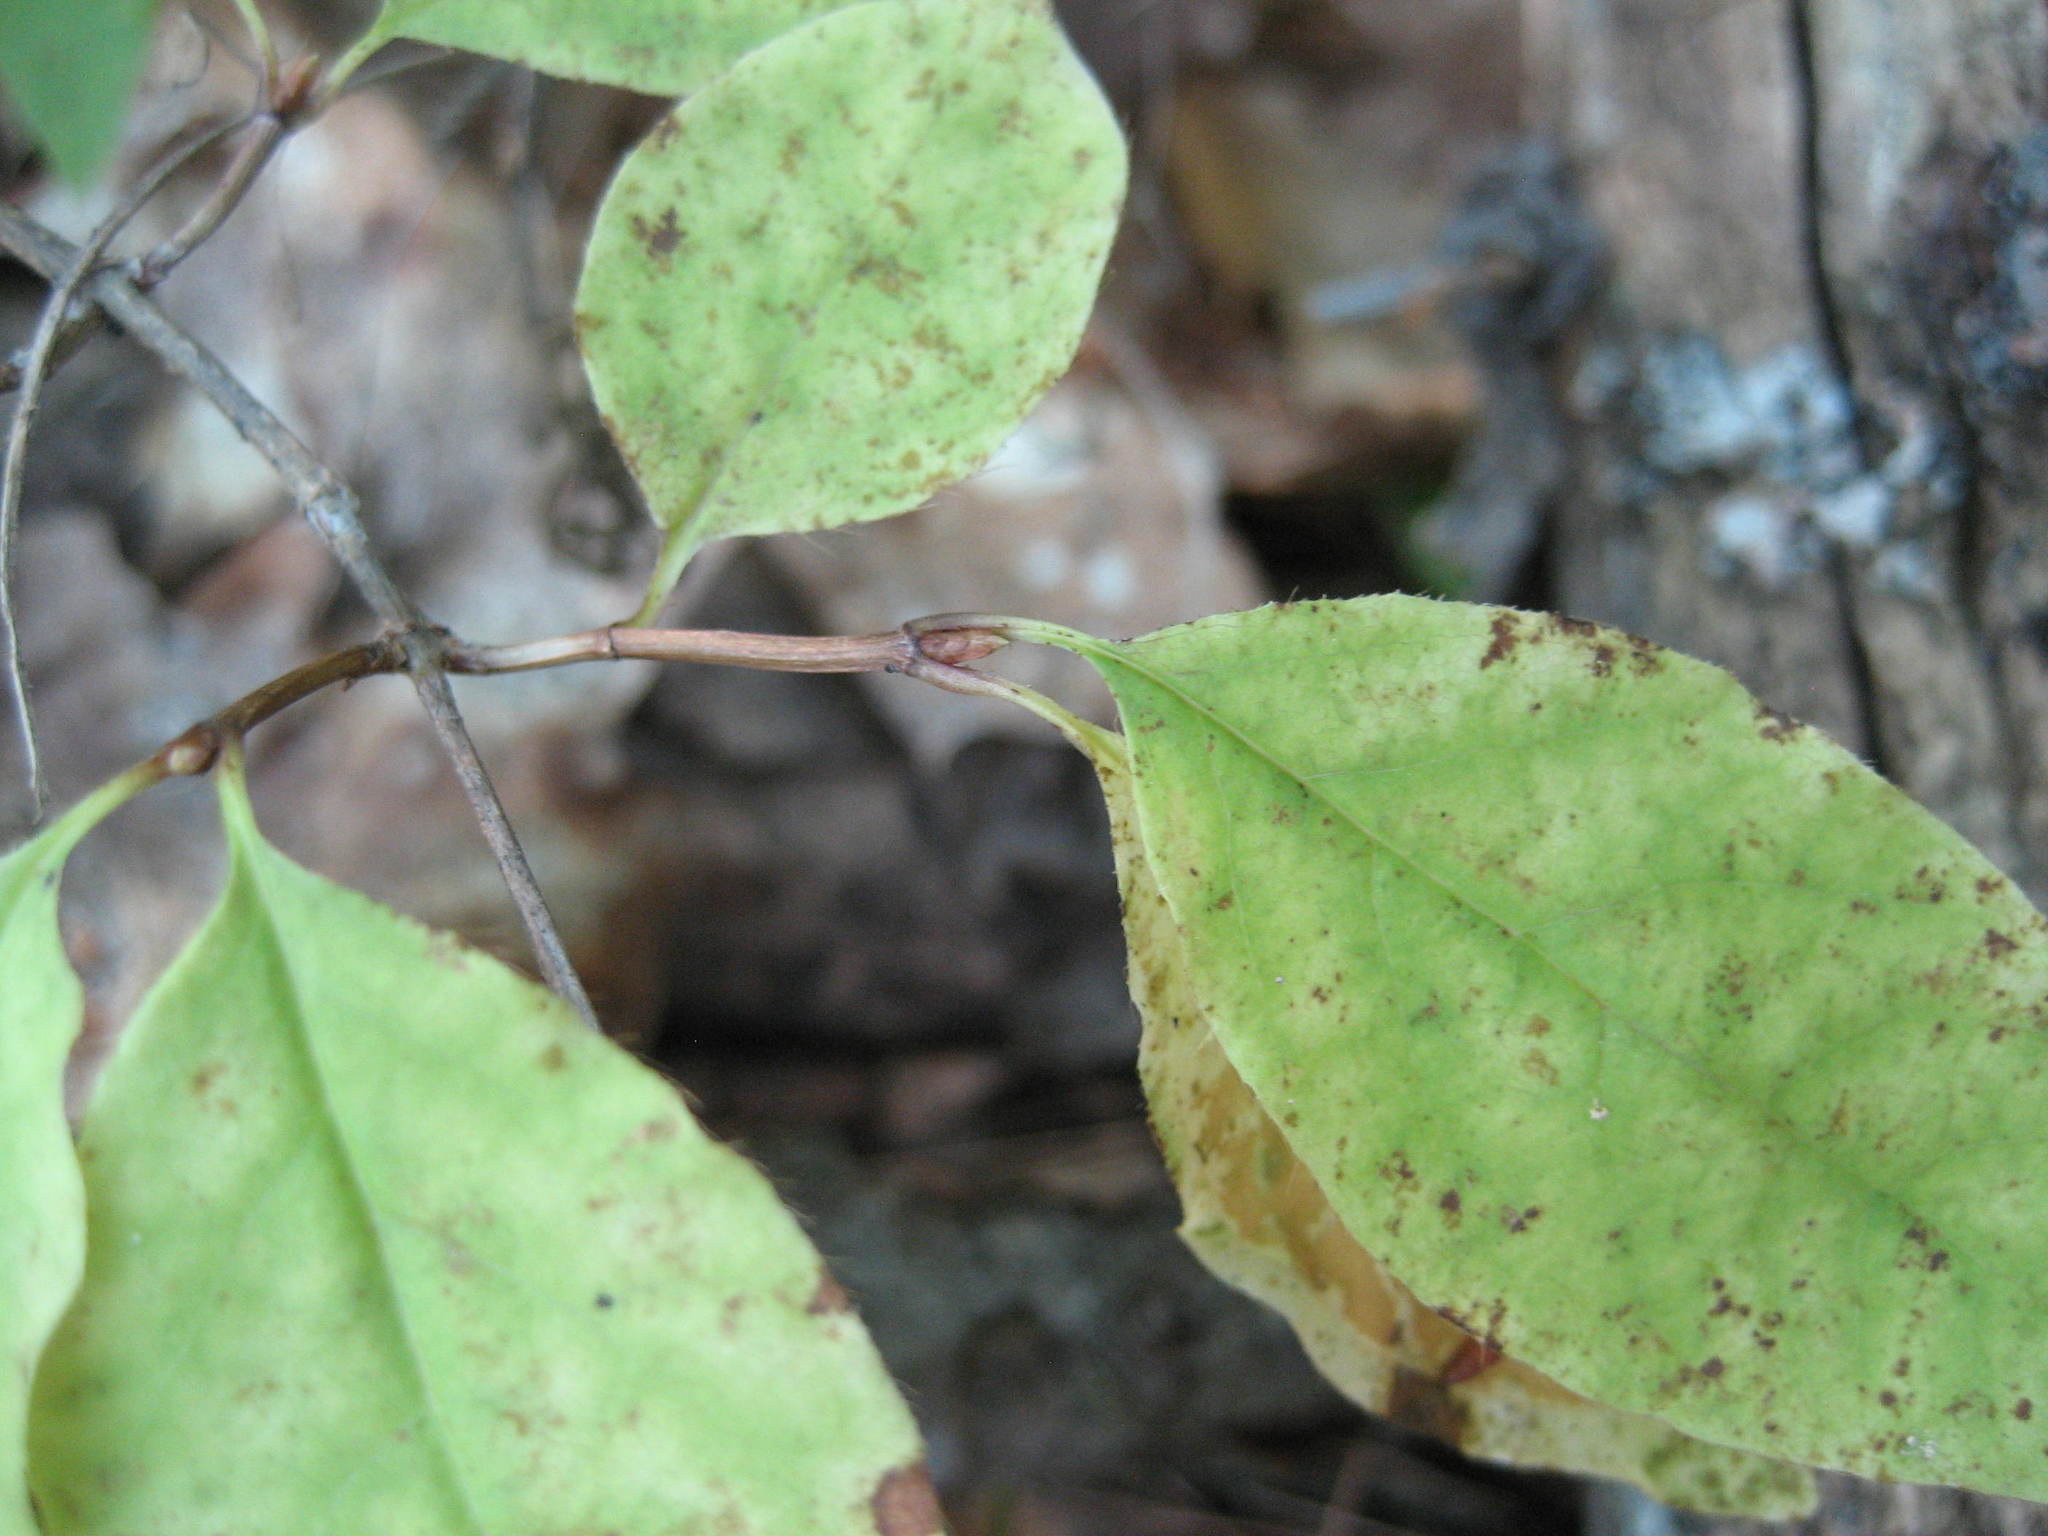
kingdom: Plantae
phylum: Tracheophyta
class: Magnoliopsida
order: Dipsacales
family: Caprifoliaceae
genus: Lonicera
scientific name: Lonicera canadensis
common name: American fly-honeysuckle
